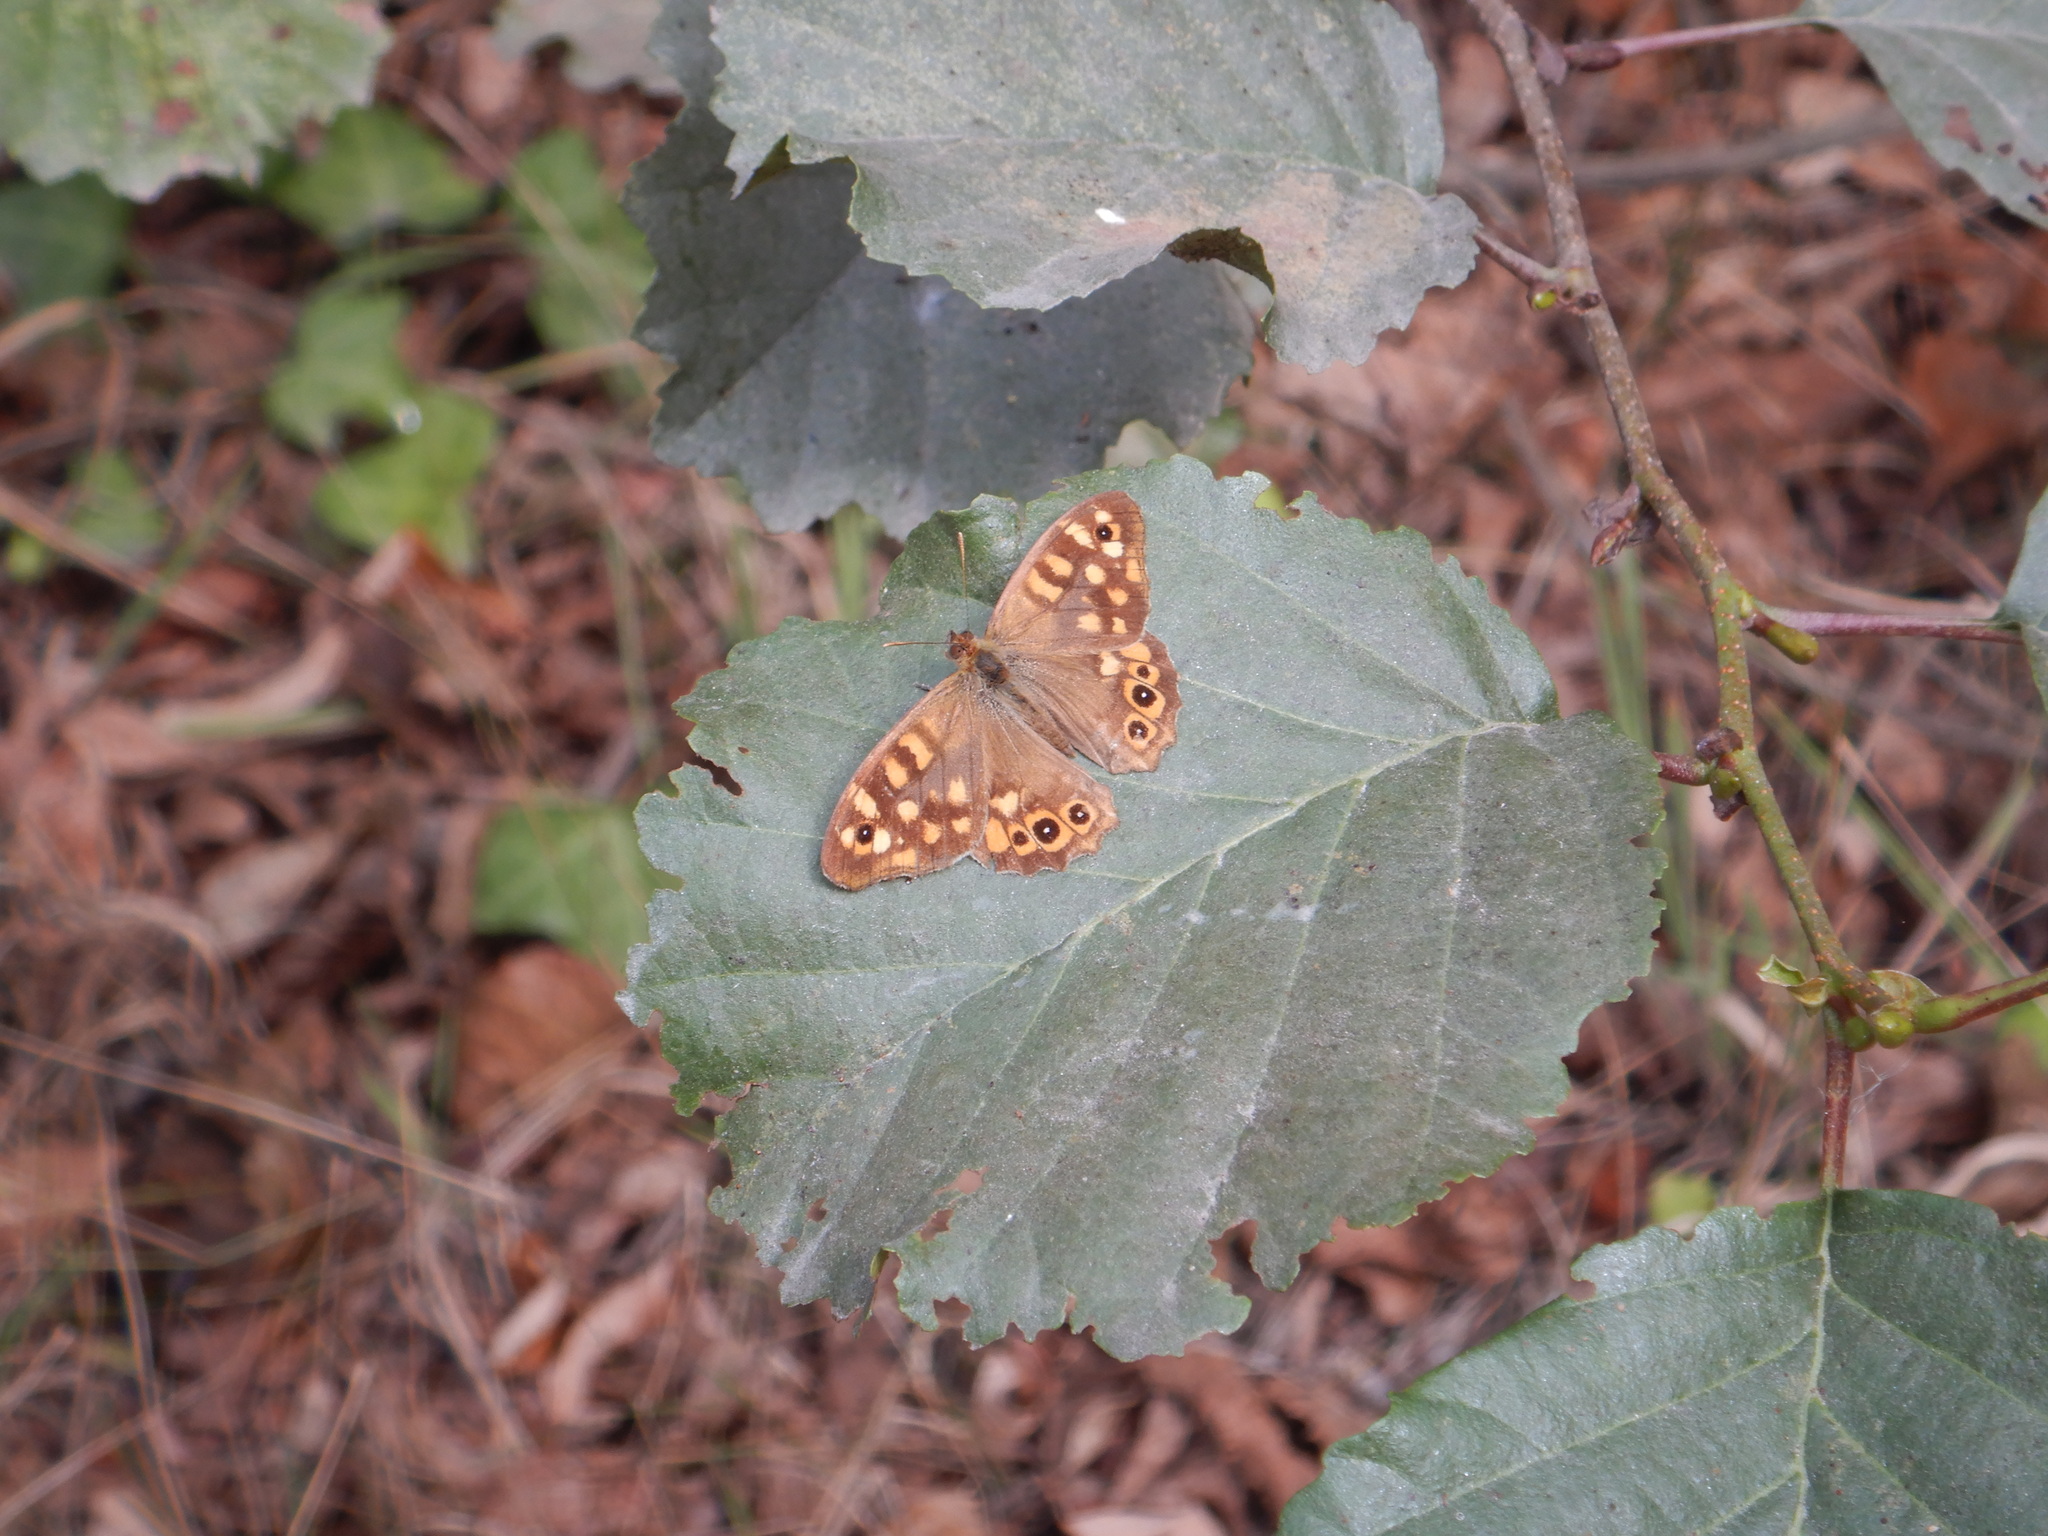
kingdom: Animalia
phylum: Arthropoda
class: Insecta
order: Lepidoptera
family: Nymphalidae
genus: Pararge
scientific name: Pararge aegeria
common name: Speckled wood
